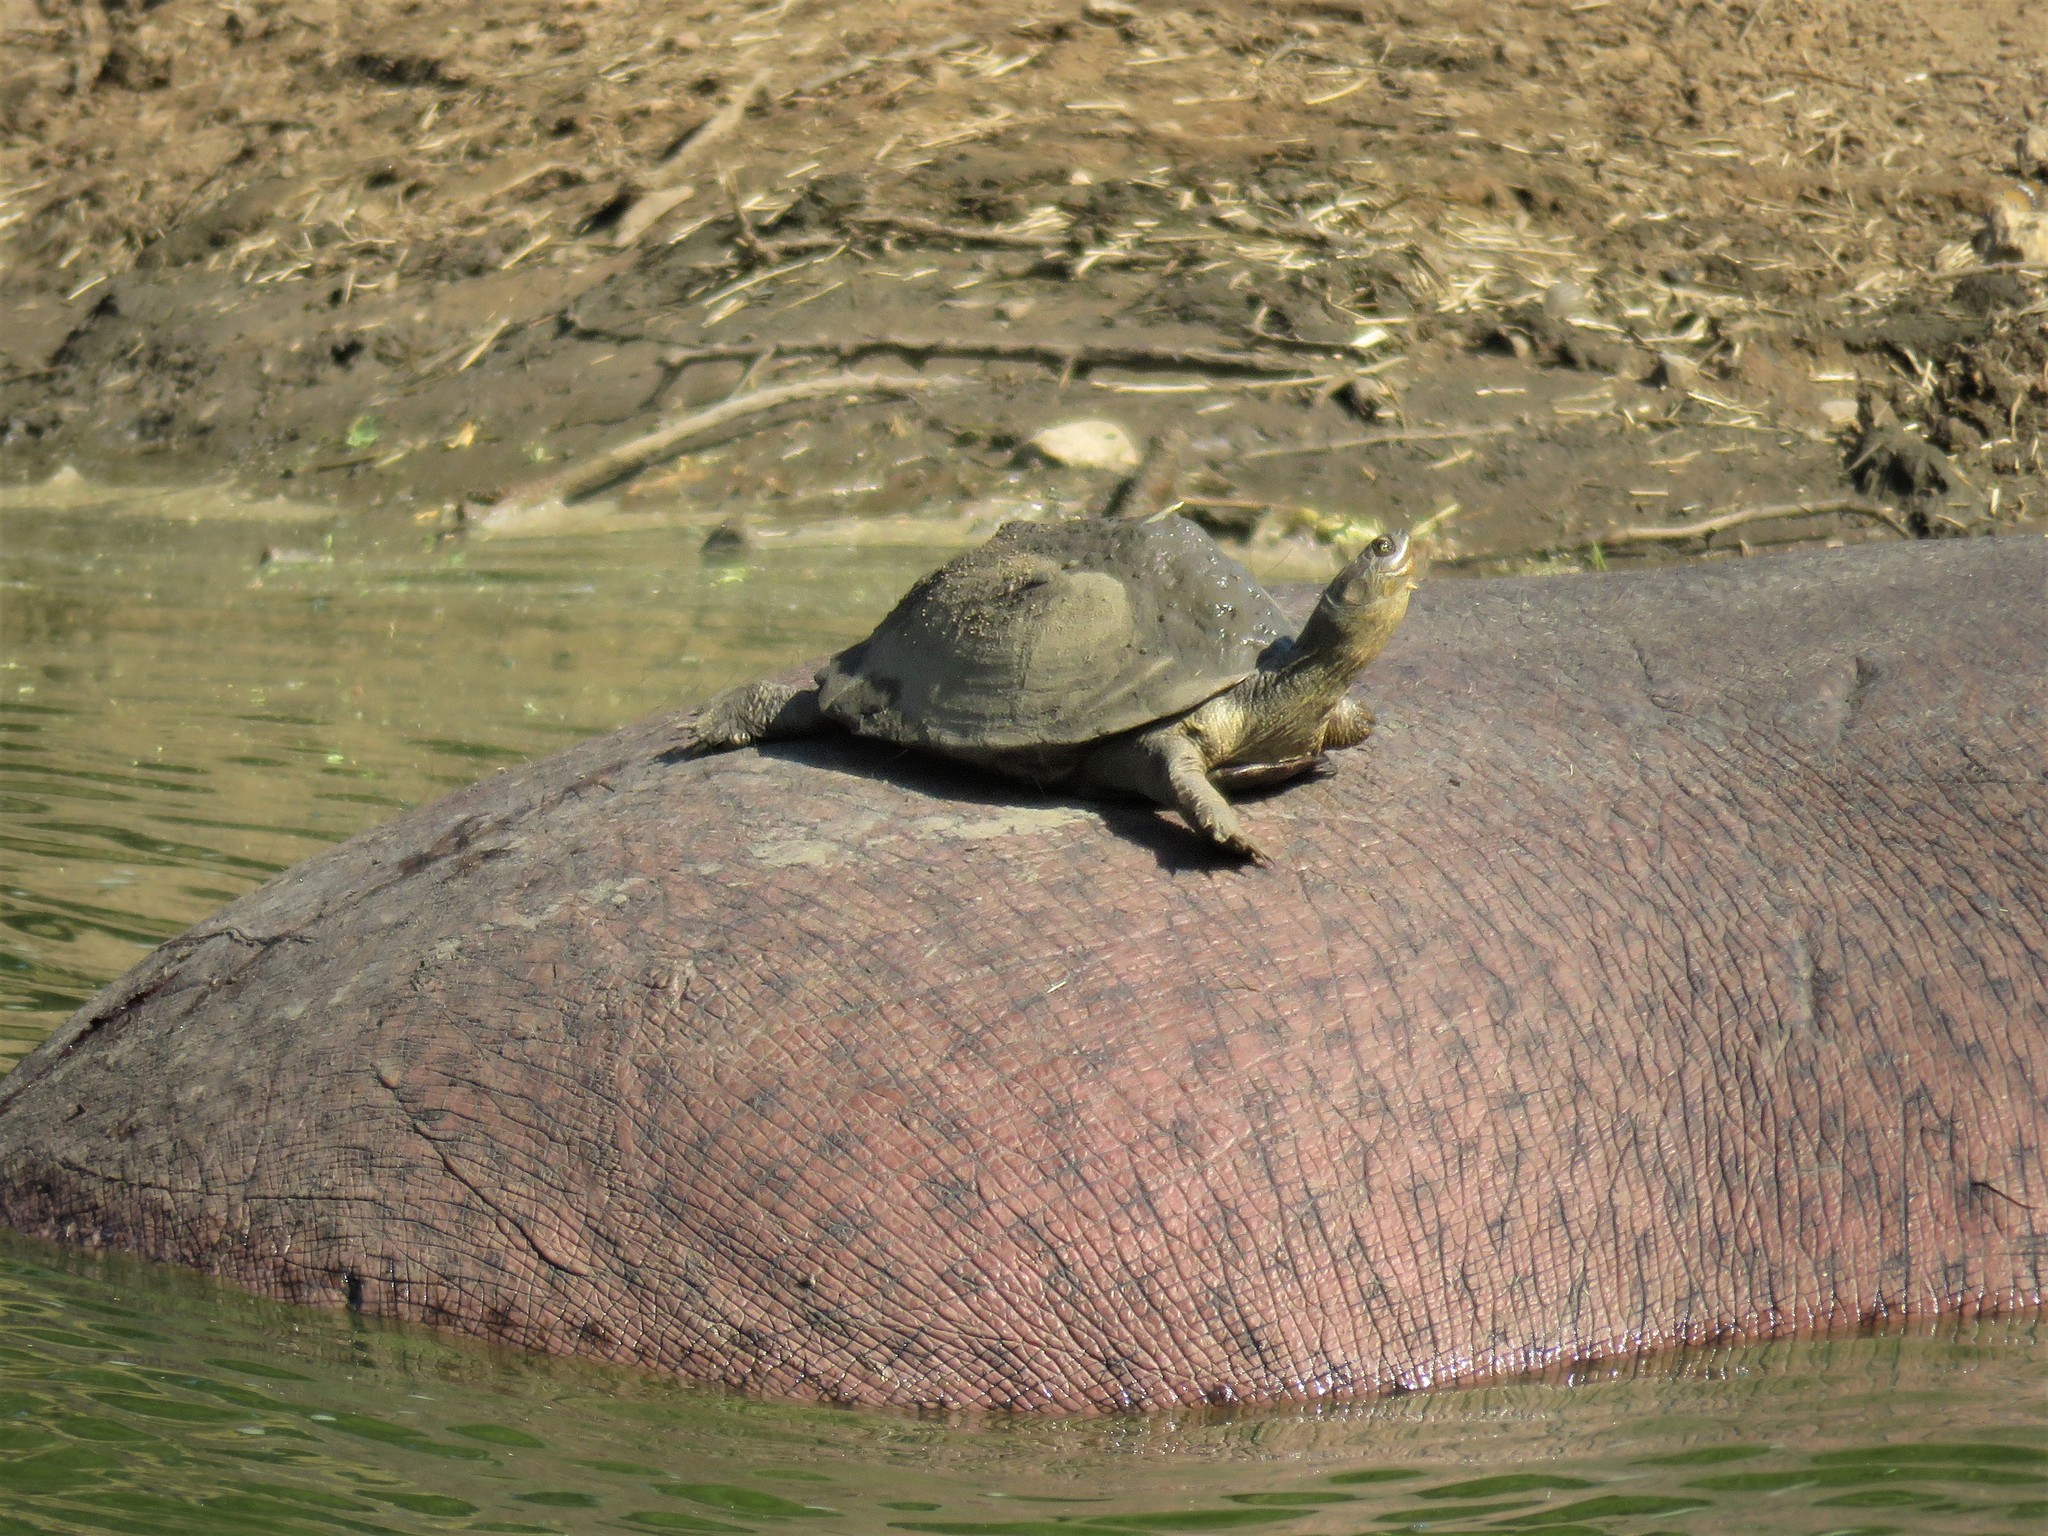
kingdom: Animalia
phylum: Chordata
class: Testudines
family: Pelomedusidae
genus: Pelusios
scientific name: Pelusios sinuatus
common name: Serrated hinged terrapin
